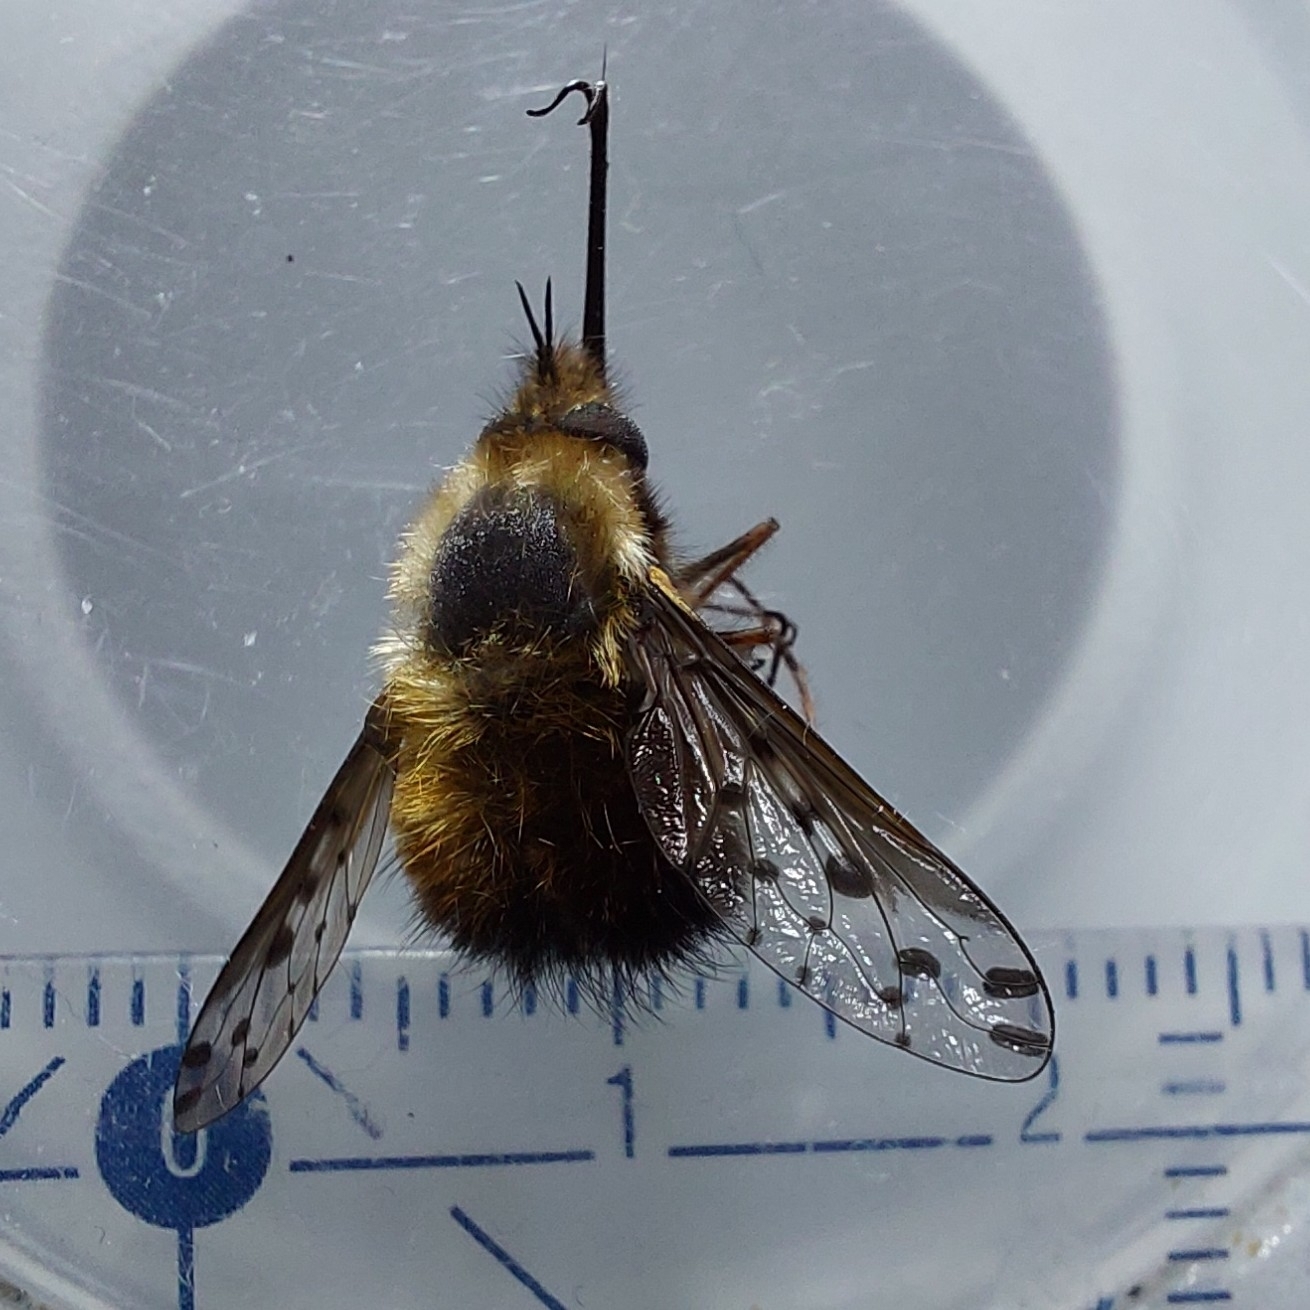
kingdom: Animalia
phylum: Arthropoda
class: Insecta
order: Diptera
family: Bombyliidae
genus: Bombylius
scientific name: Bombylius discolor
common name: Dotted bee-fly
